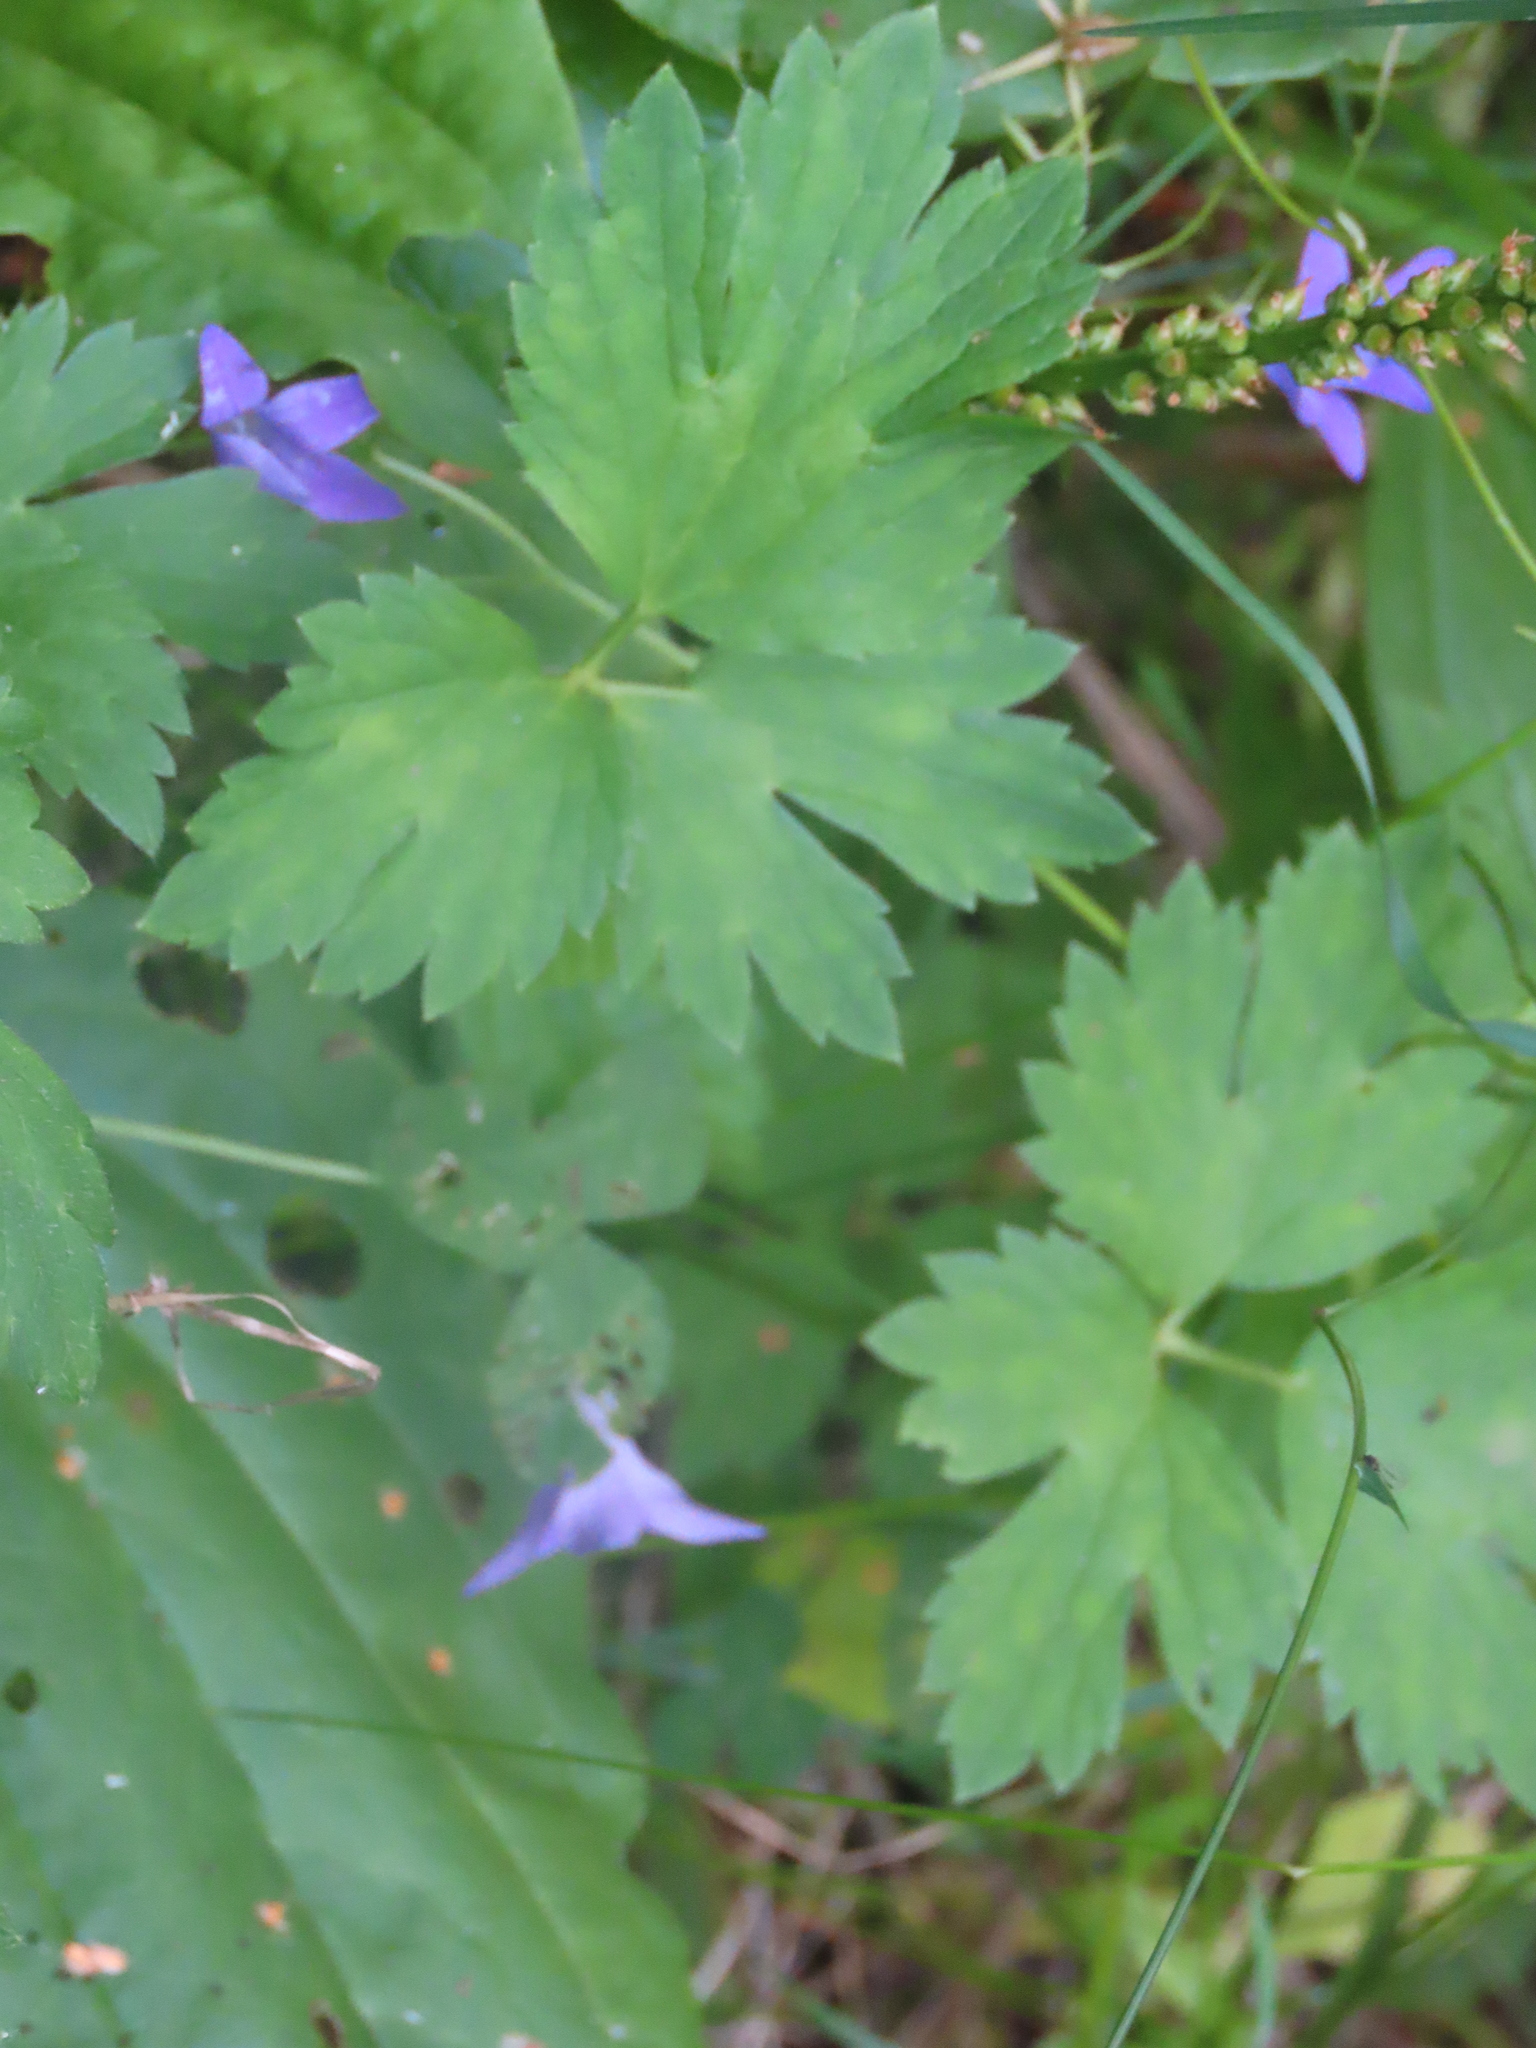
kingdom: Plantae
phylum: Tracheophyta
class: Magnoliopsida
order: Asterales
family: Campanulaceae
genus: Campanula
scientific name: Campanula patula
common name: Spreading bellflower
